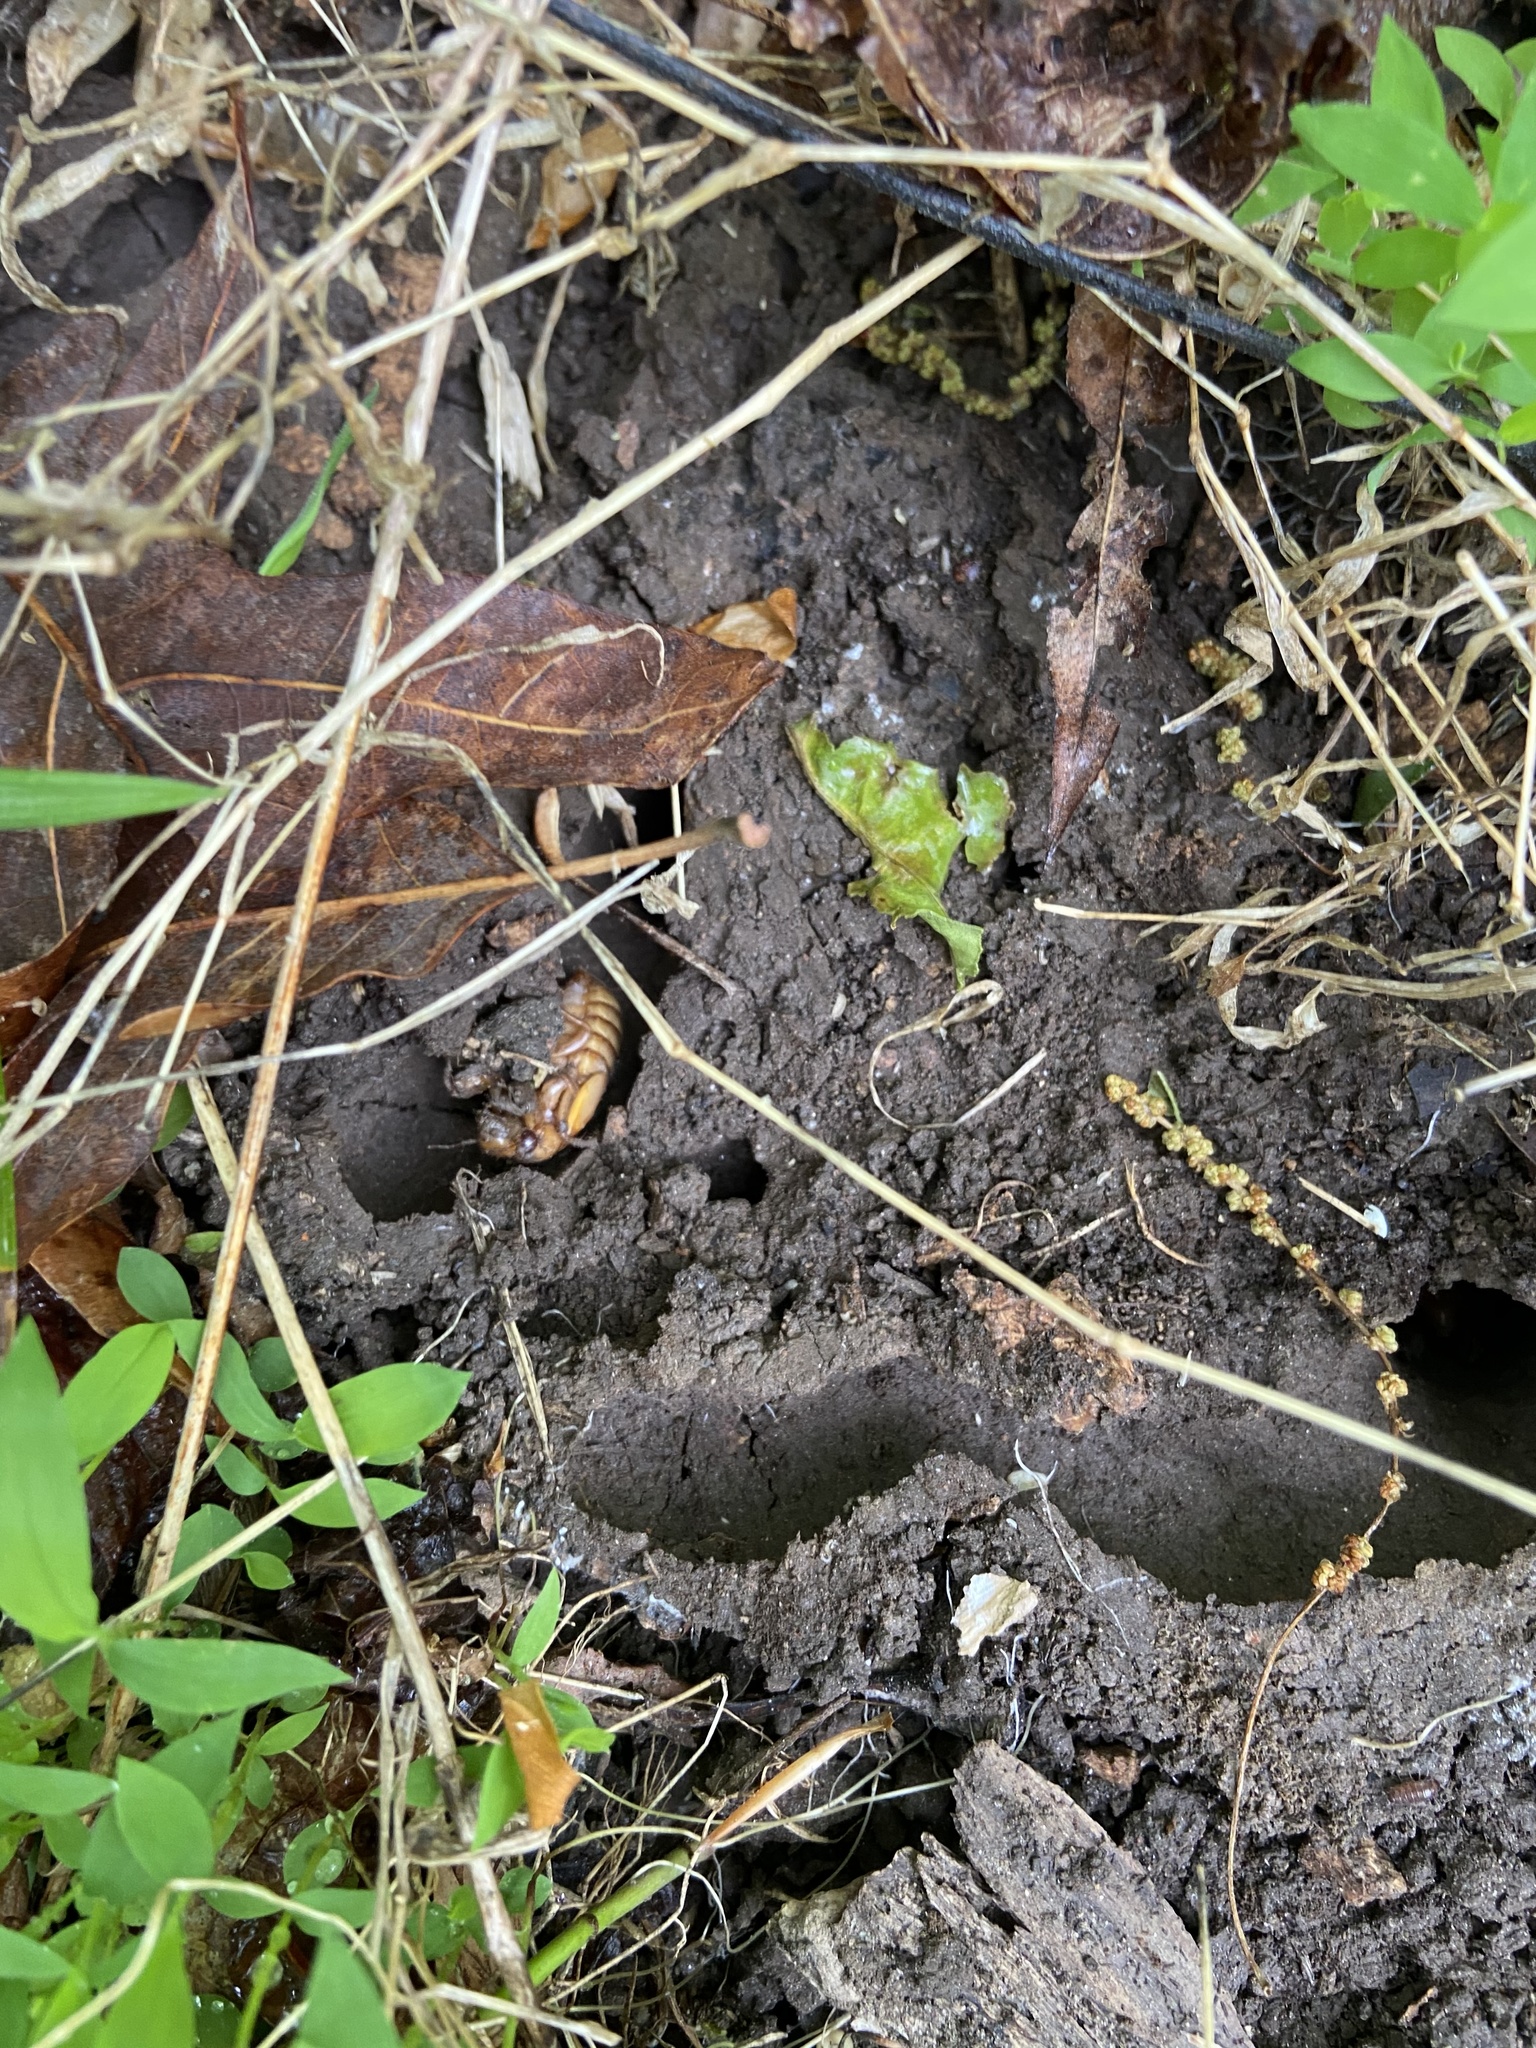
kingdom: Animalia
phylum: Arthropoda
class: Insecta
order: Hemiptera
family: Cicadidae
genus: Magicicada
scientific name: Magicicada
